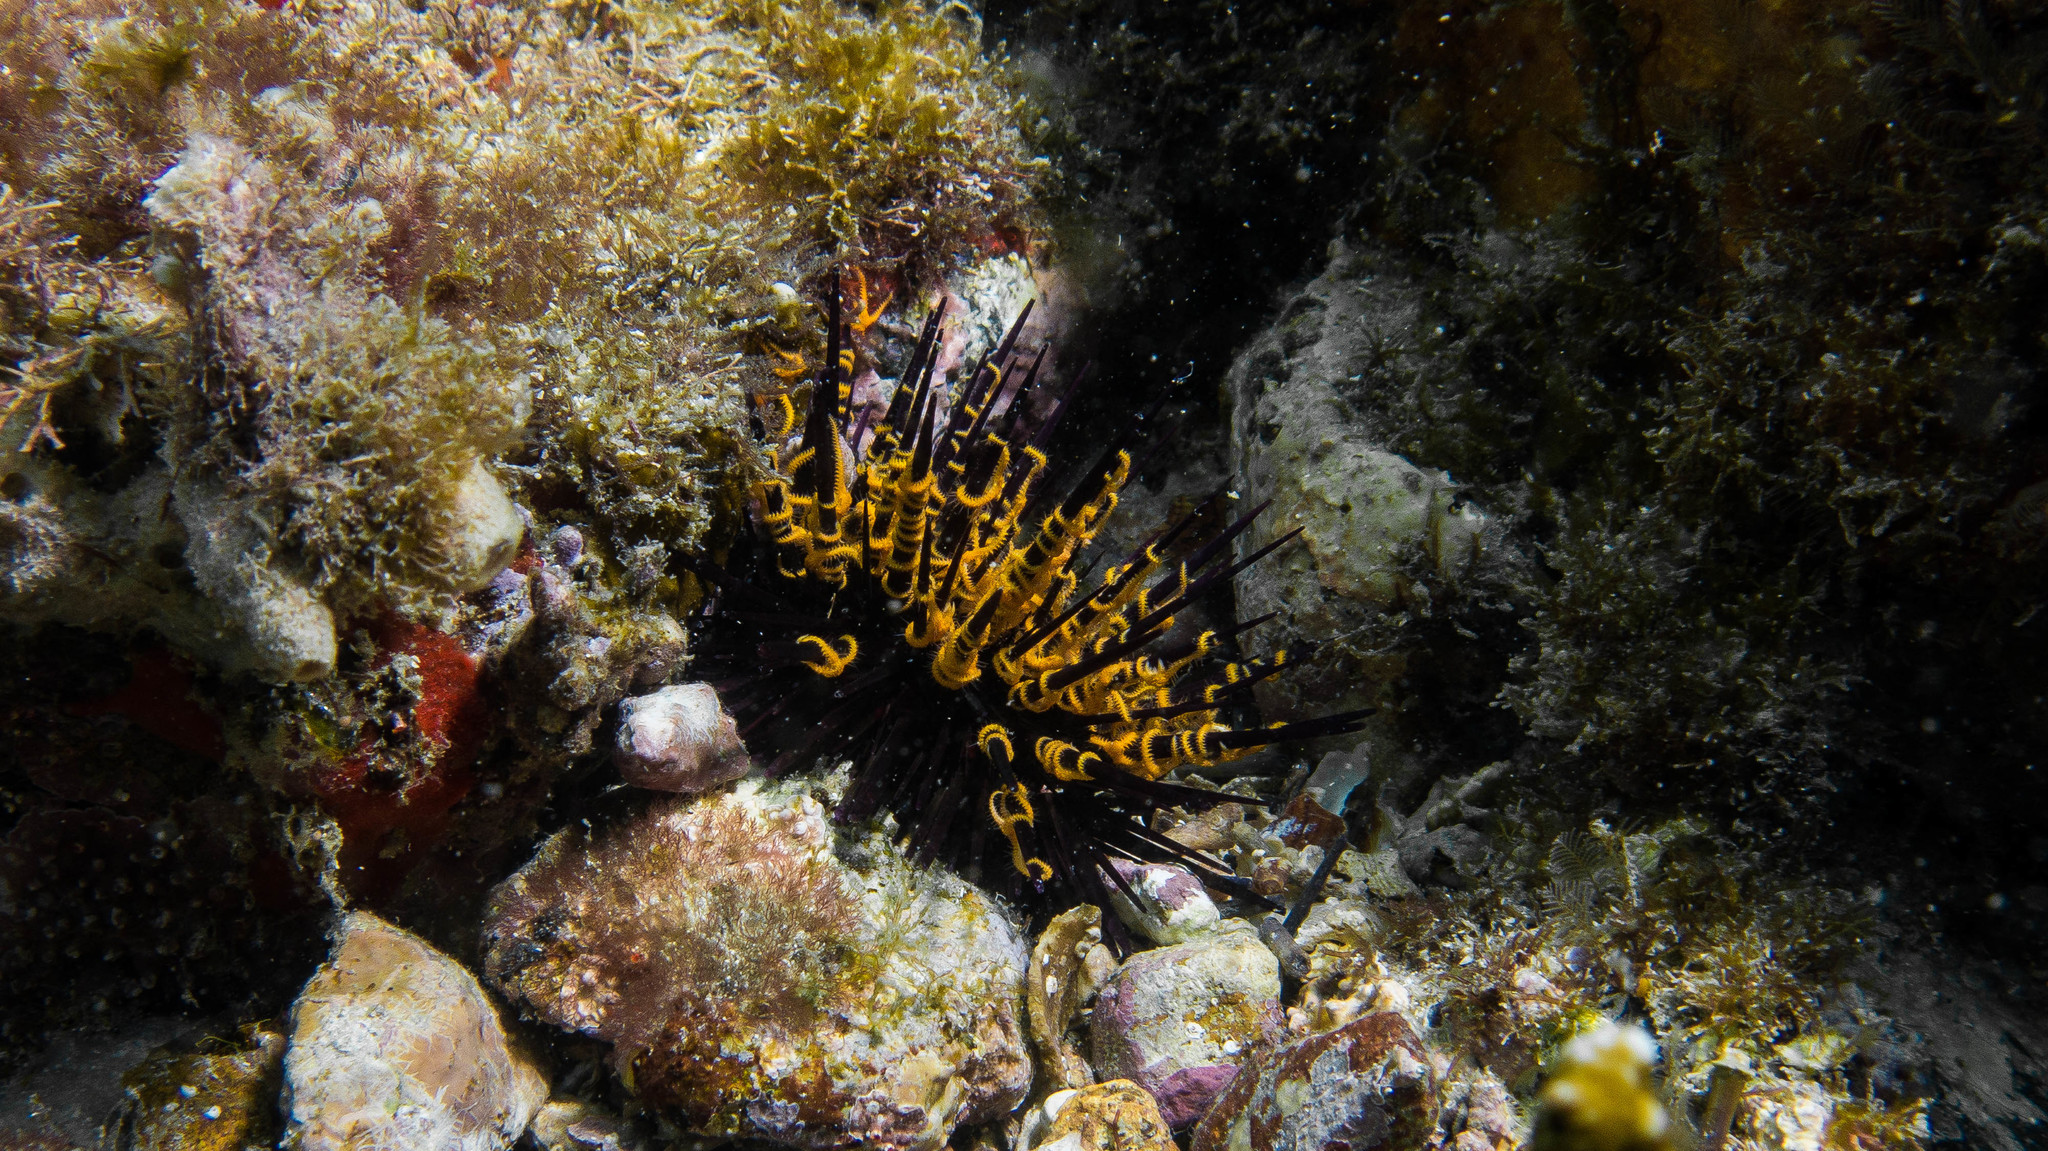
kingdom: Animalia
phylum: Echinodermata
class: Echinoidea
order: Camarodonta
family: Echinometridae
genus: Echinometra
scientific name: Echinometra lucunter
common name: Rock urchin
